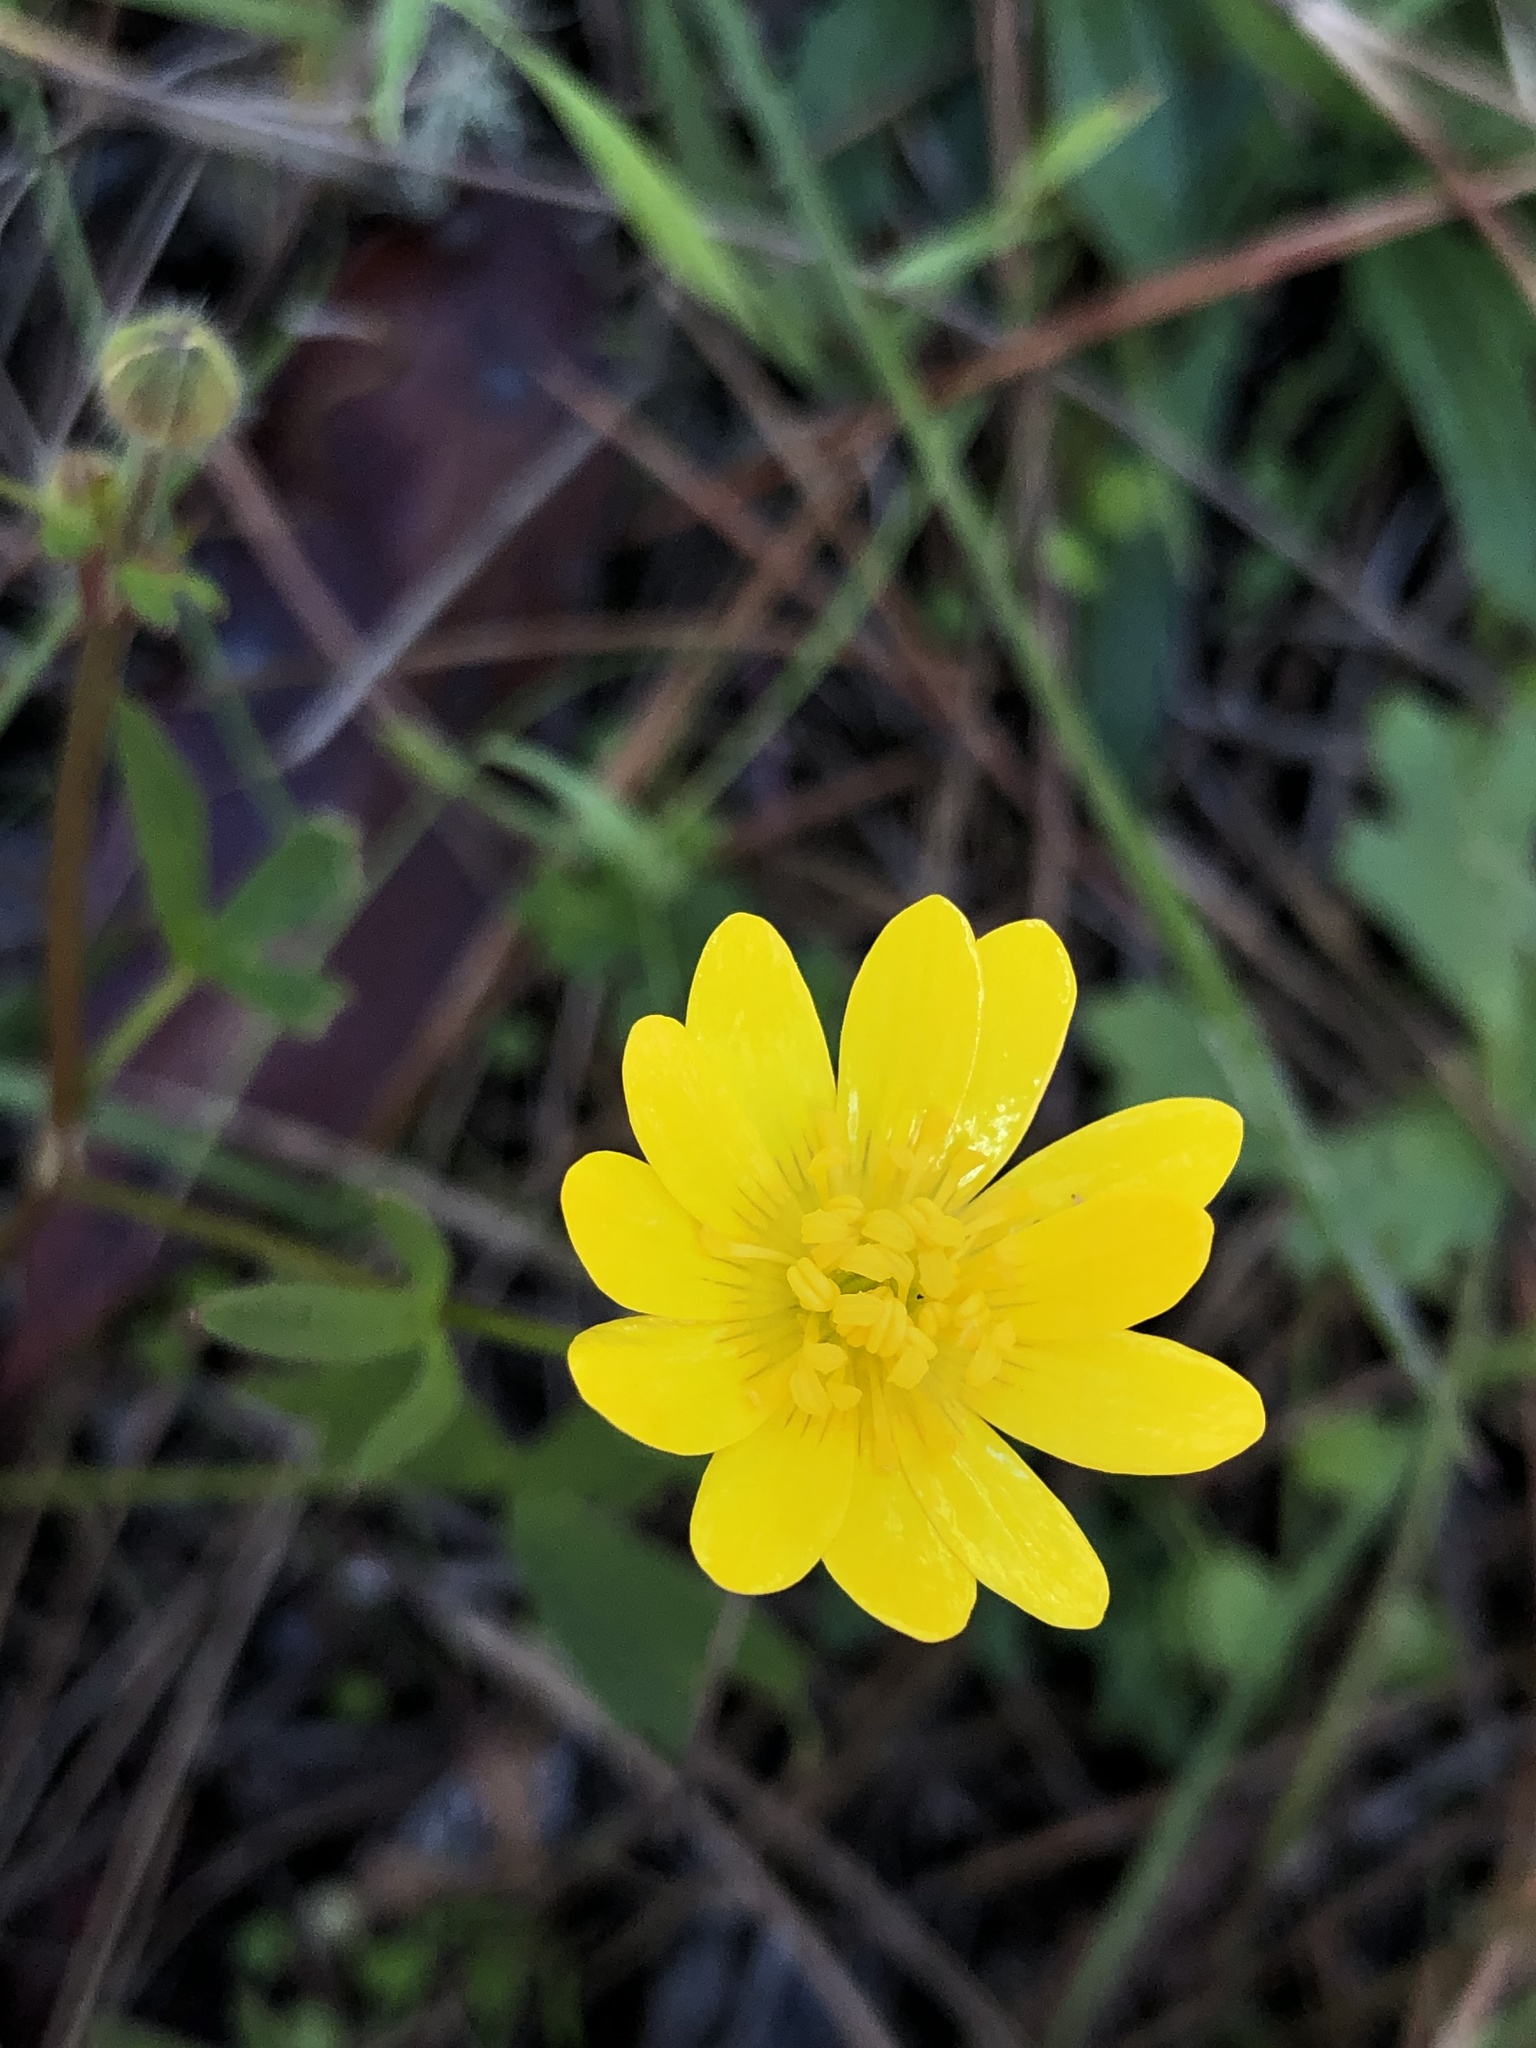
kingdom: Plantae
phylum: Tracheophyta
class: Magnoliopsida
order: Ranunculales
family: Ranunculaceae
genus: Ranunculus
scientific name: Ranunculus californicus
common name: California buttercup
